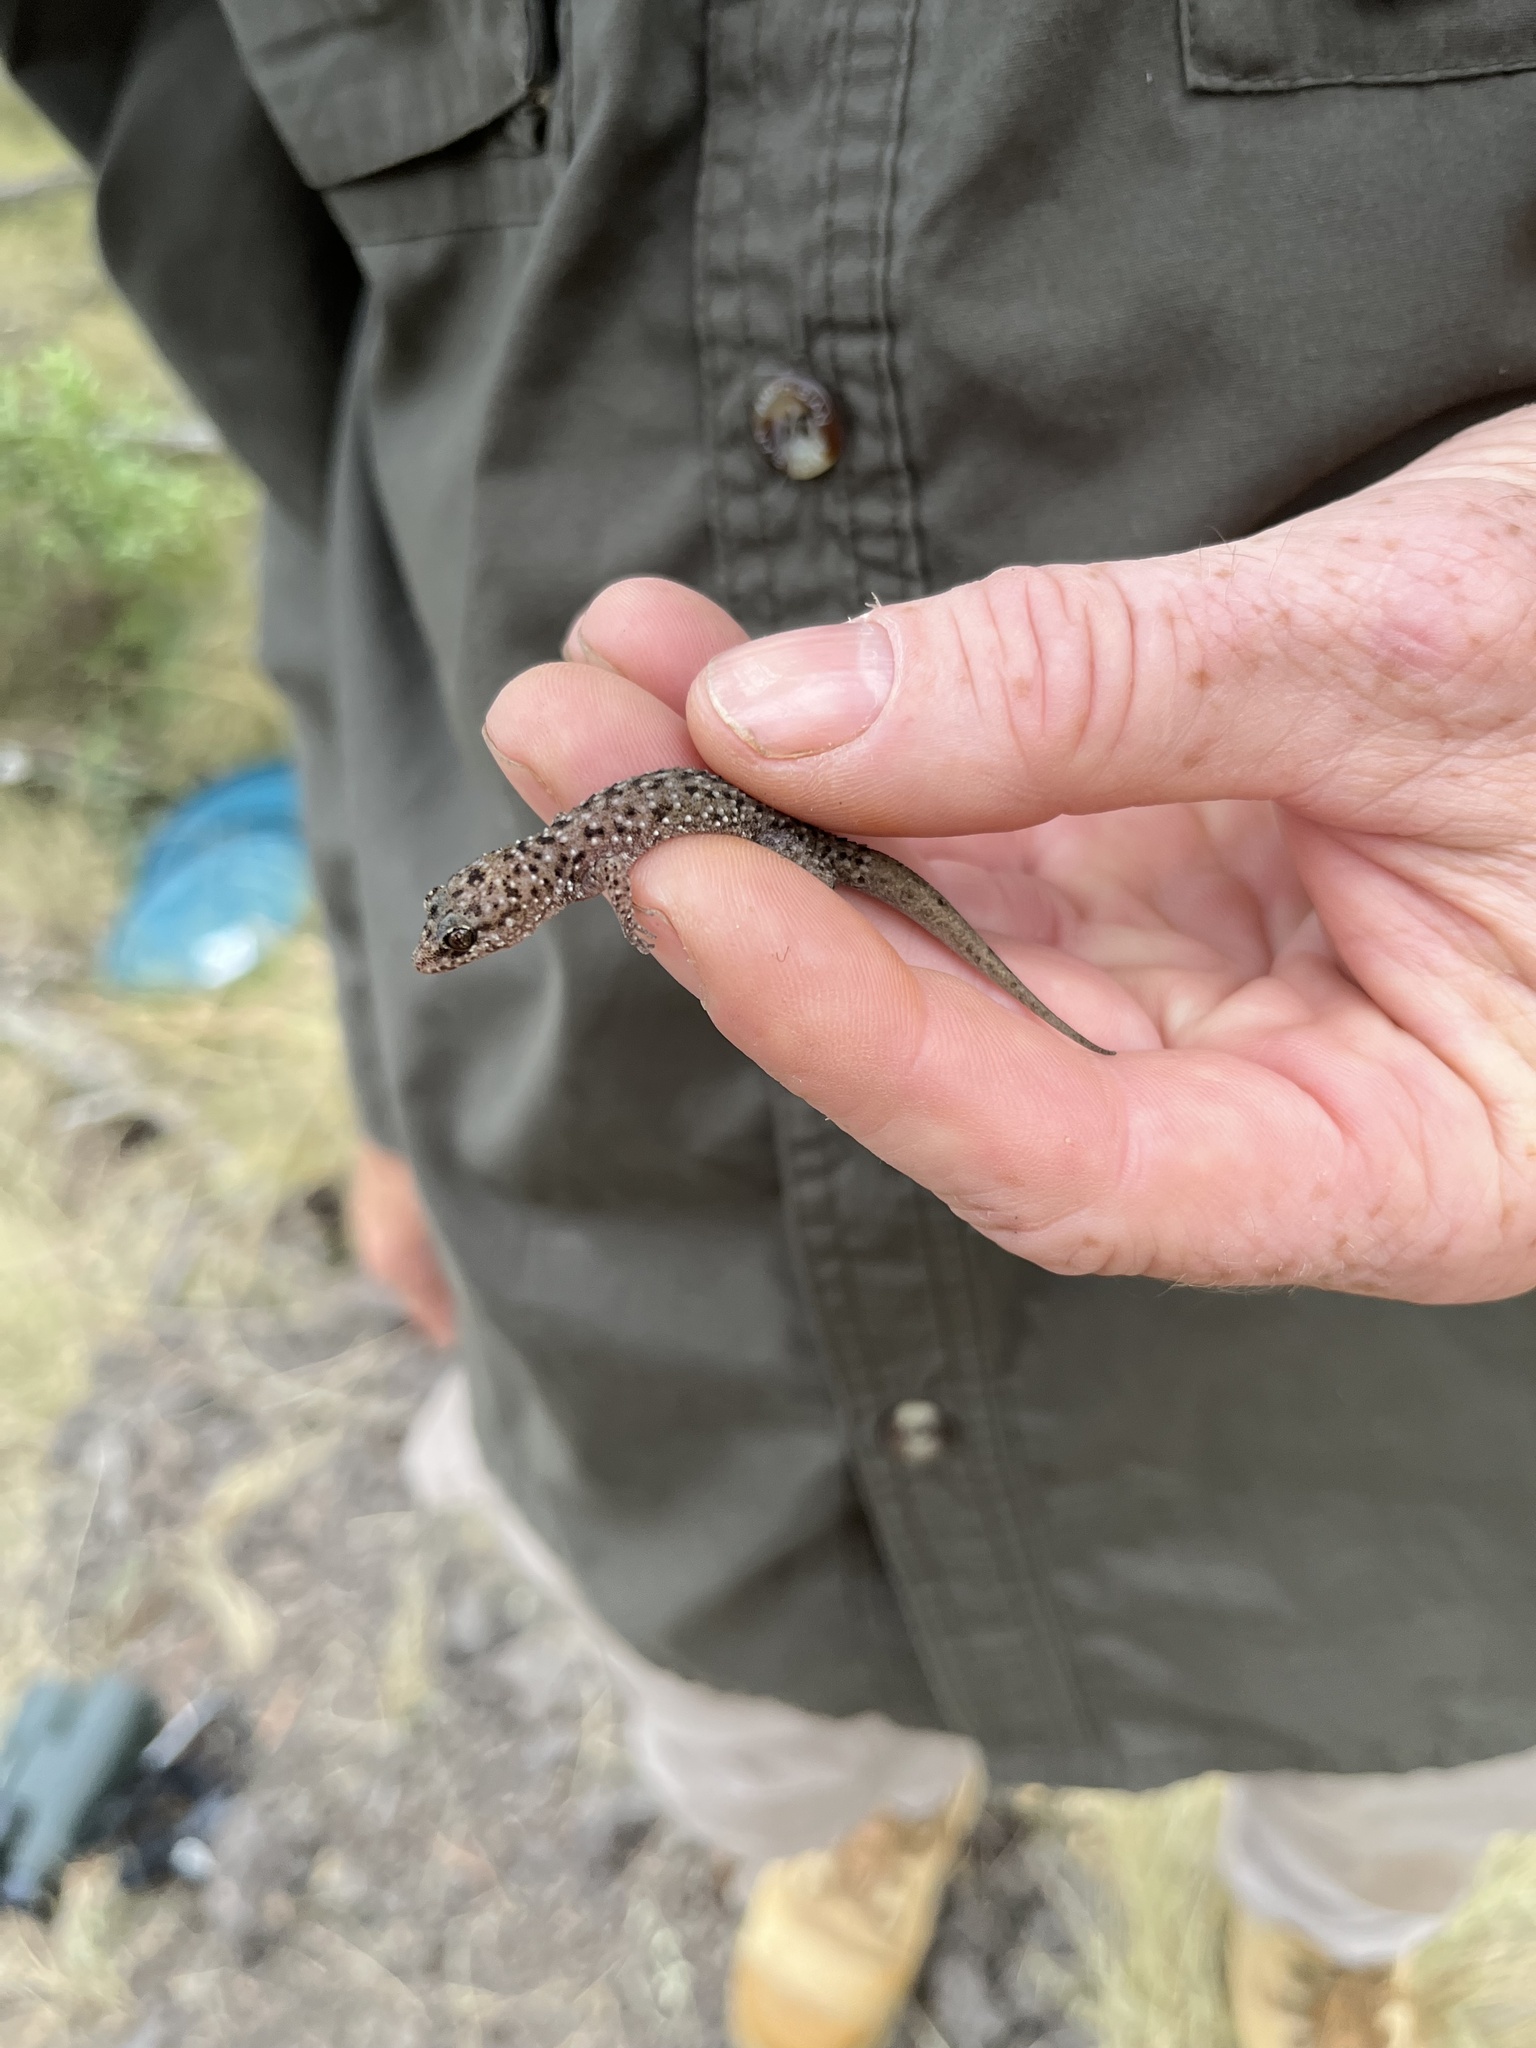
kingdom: Animalia
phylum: Chordata
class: Squamata
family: Gekkonidae
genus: Heteronotia
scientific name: Heteronotia binoei
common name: Bynoe's gecko
